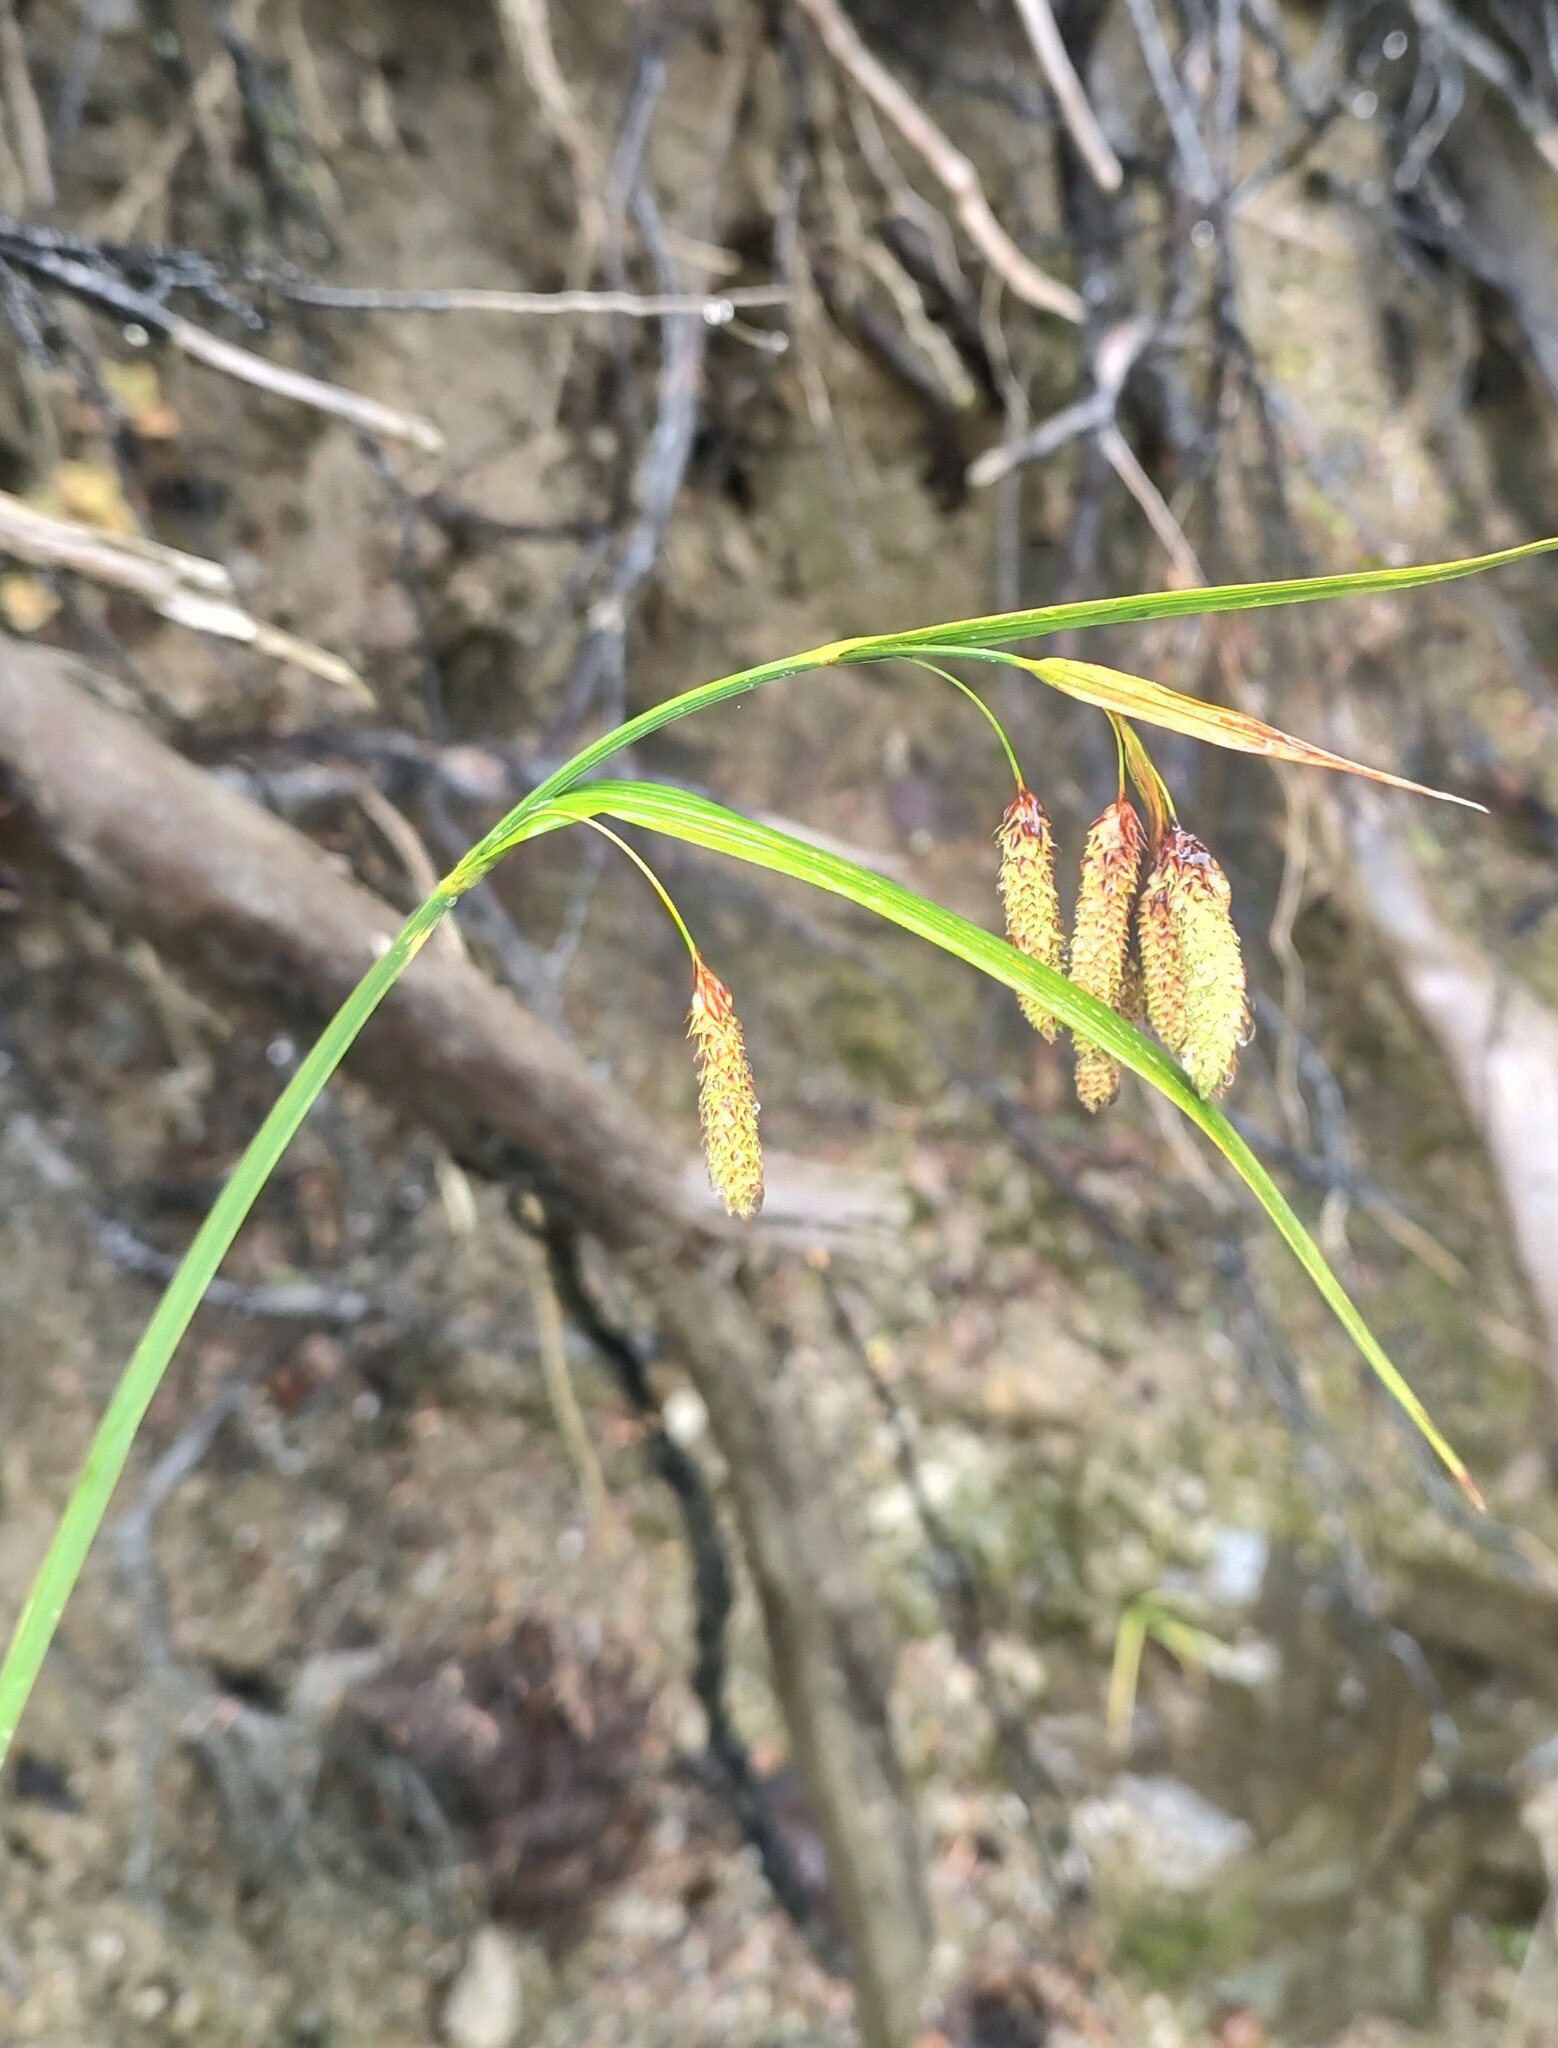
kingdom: Plantae
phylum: Tracheophyta
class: Liliopsida
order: Poales
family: Cyperaceae
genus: Carex
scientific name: Carex mertensii
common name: Mertens' sedge
